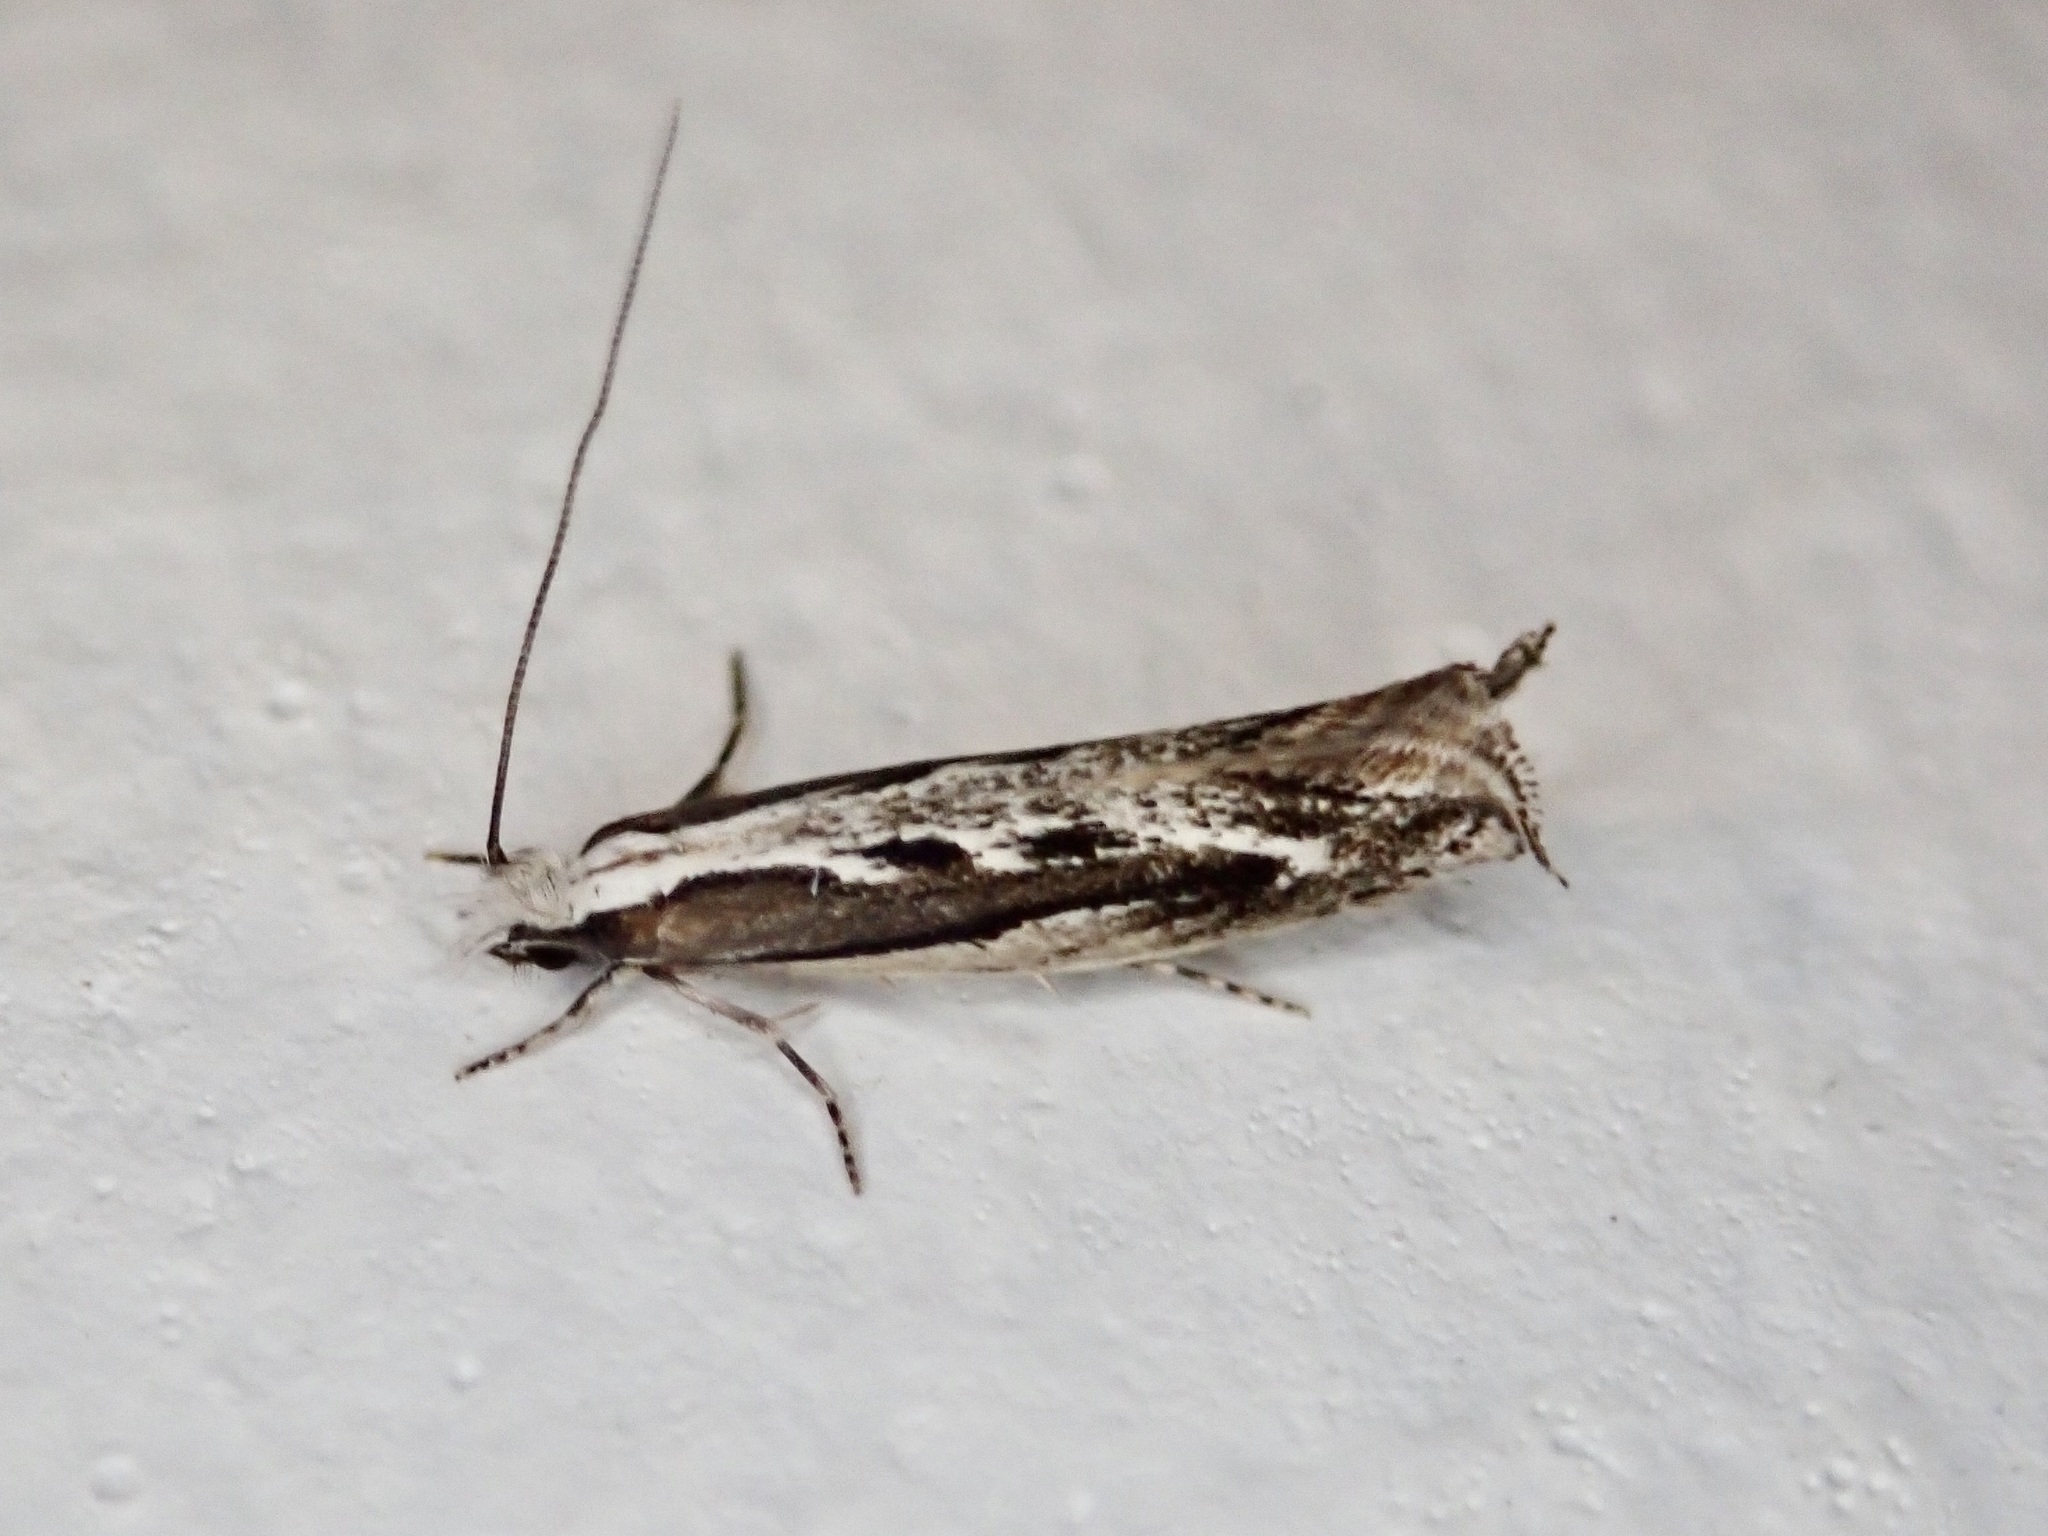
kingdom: Animalia
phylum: Arthropoda
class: Insecta
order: Lepidoptera
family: Tineidae
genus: Erechthias
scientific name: Erechthias fulguritella
